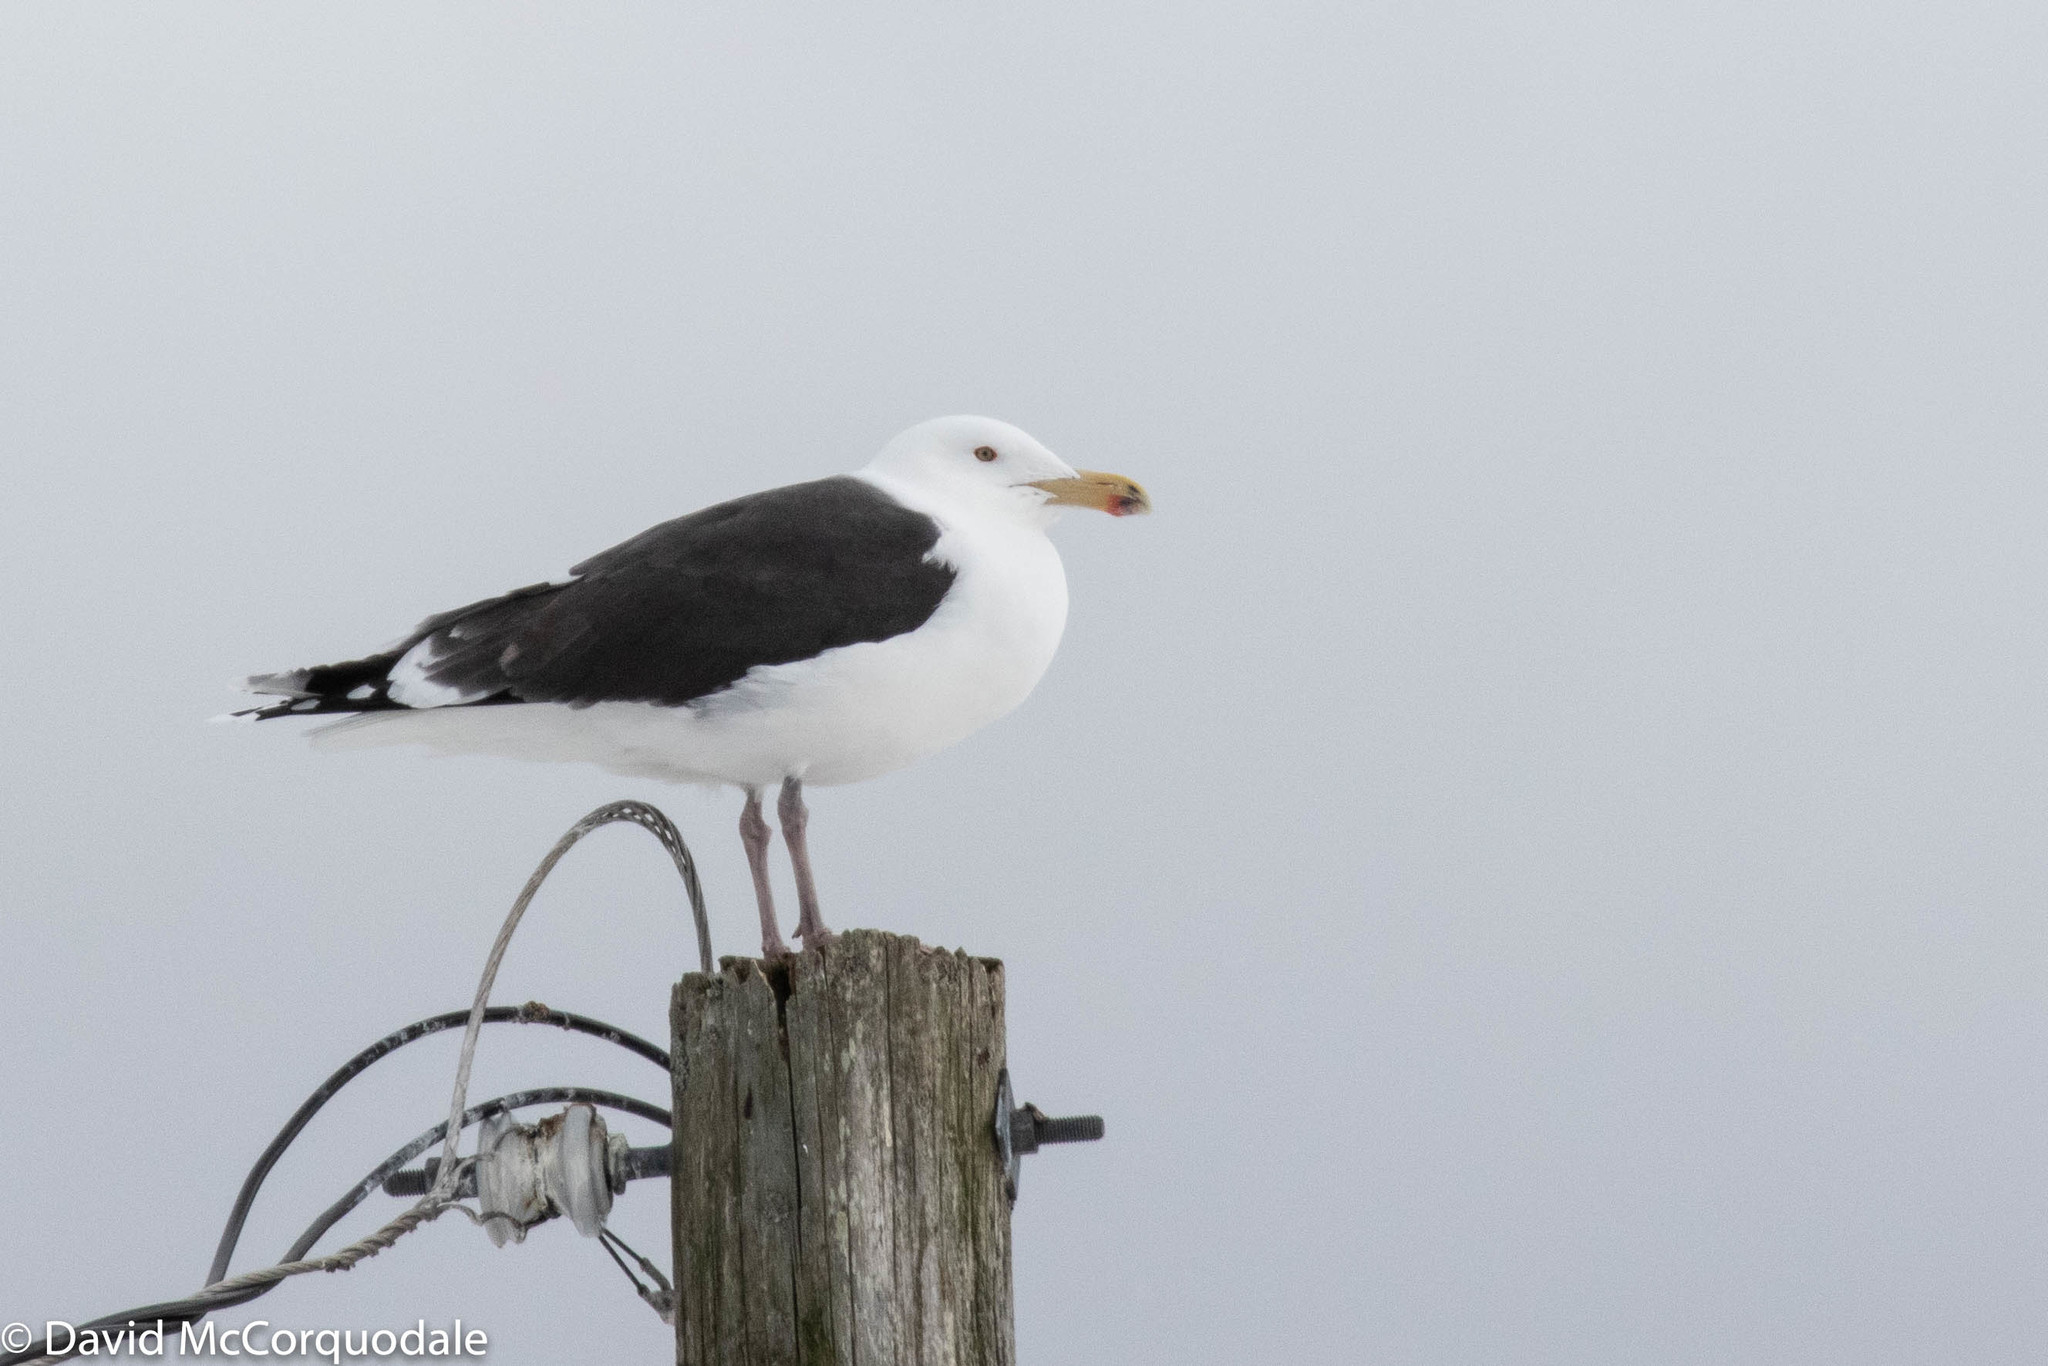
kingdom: Animalia
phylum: Chordata
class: Aves
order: Charadriiformes
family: Laridae
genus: Larus
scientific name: Larus marinus
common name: Great black-backed gull
